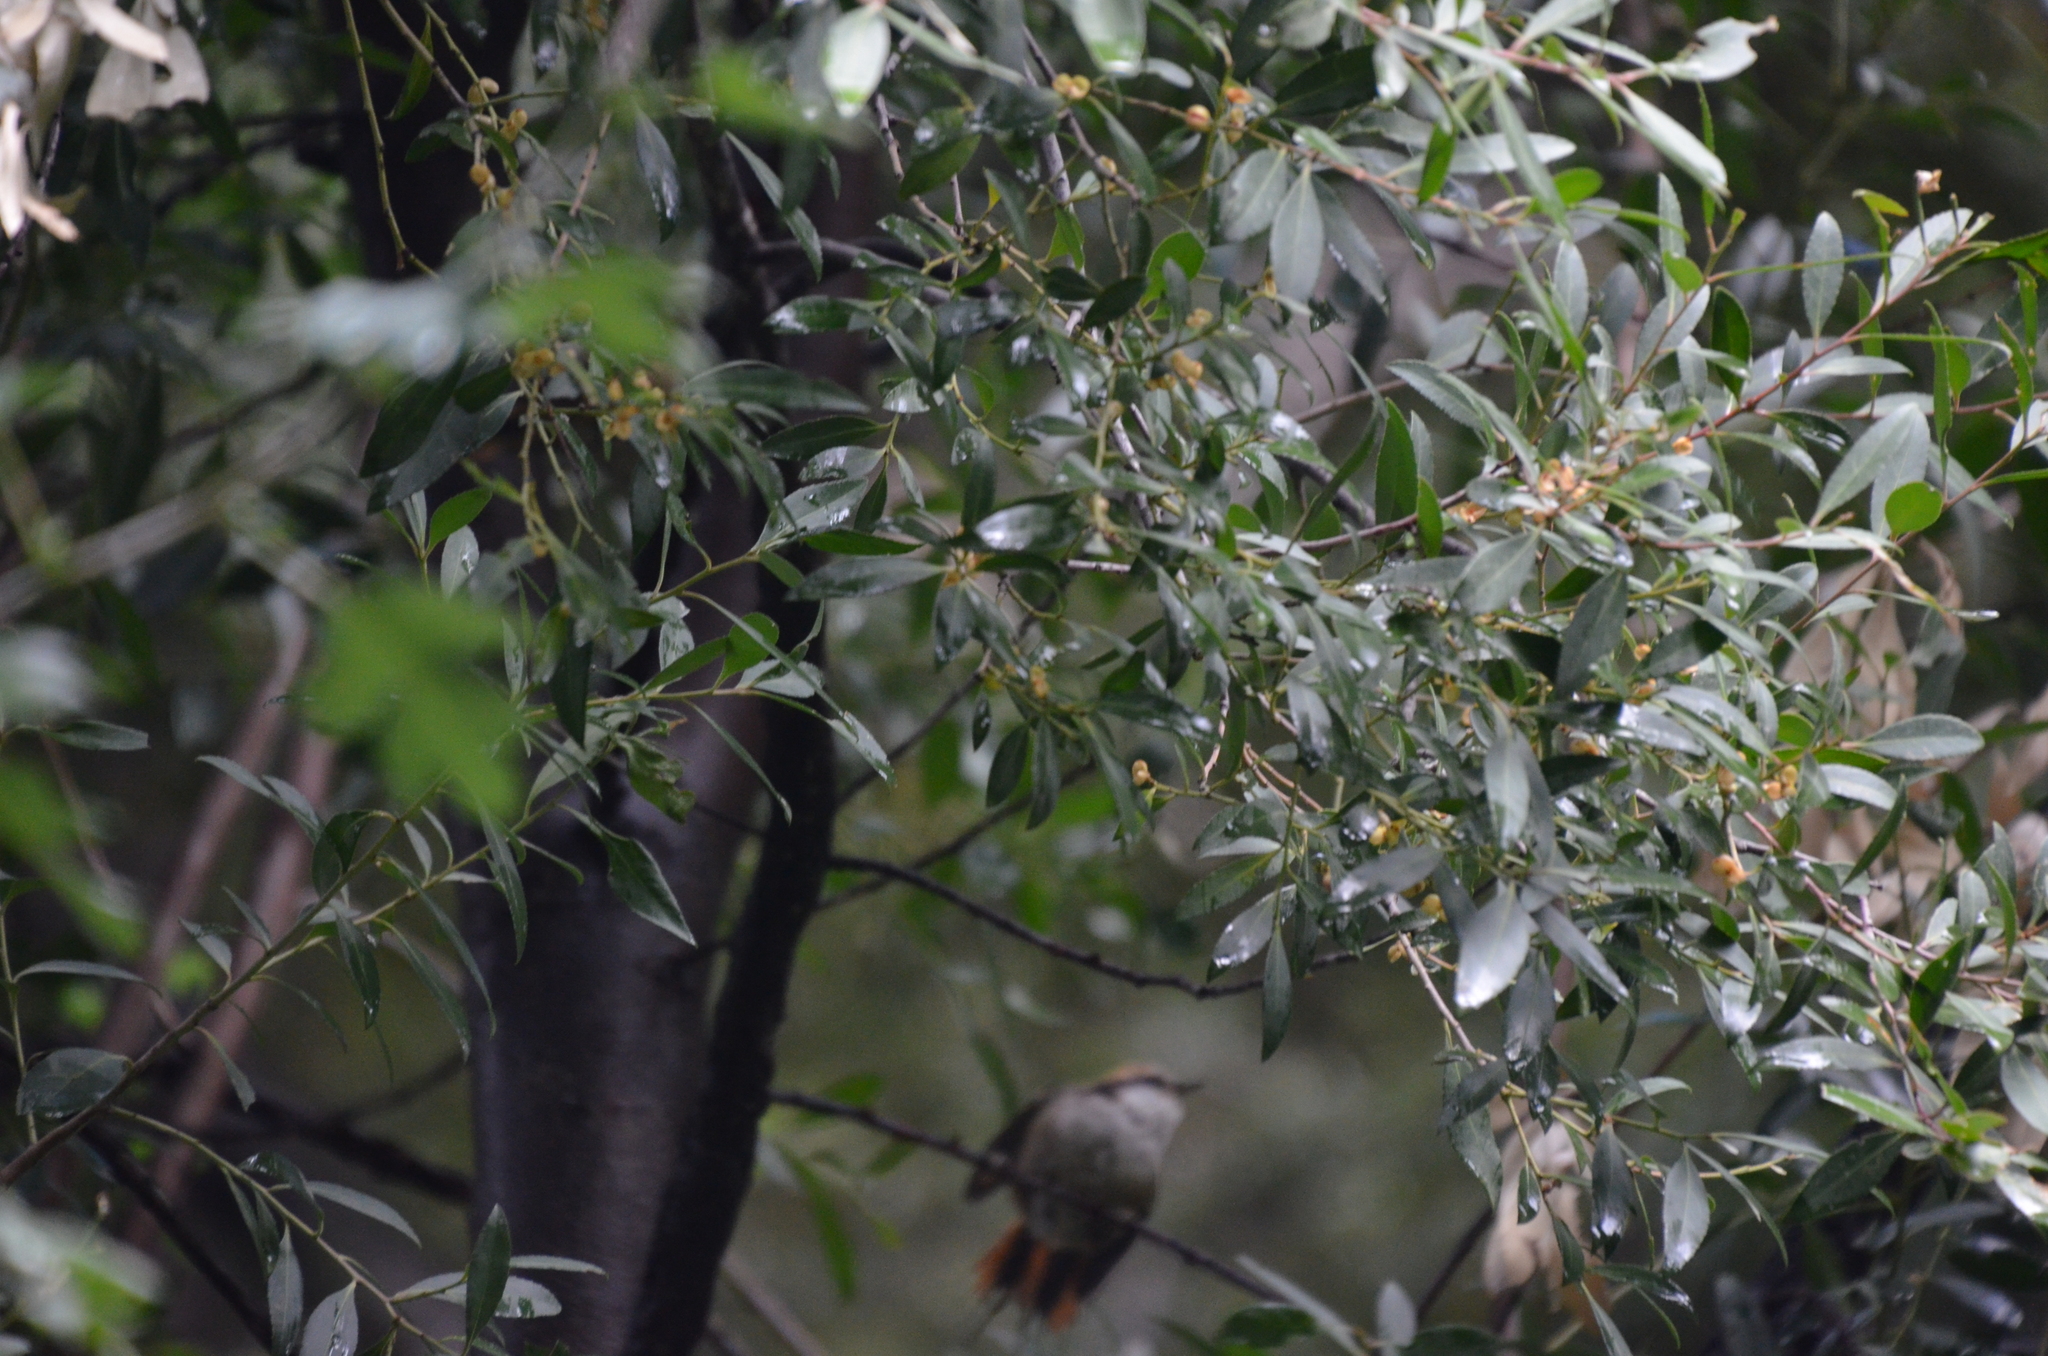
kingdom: Animalia
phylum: Chordata
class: Aves
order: Passeriformes
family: Furnariidae
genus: Aphrastura
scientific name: Aphrastura spinicauda
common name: Thorn-tailed rayadito
